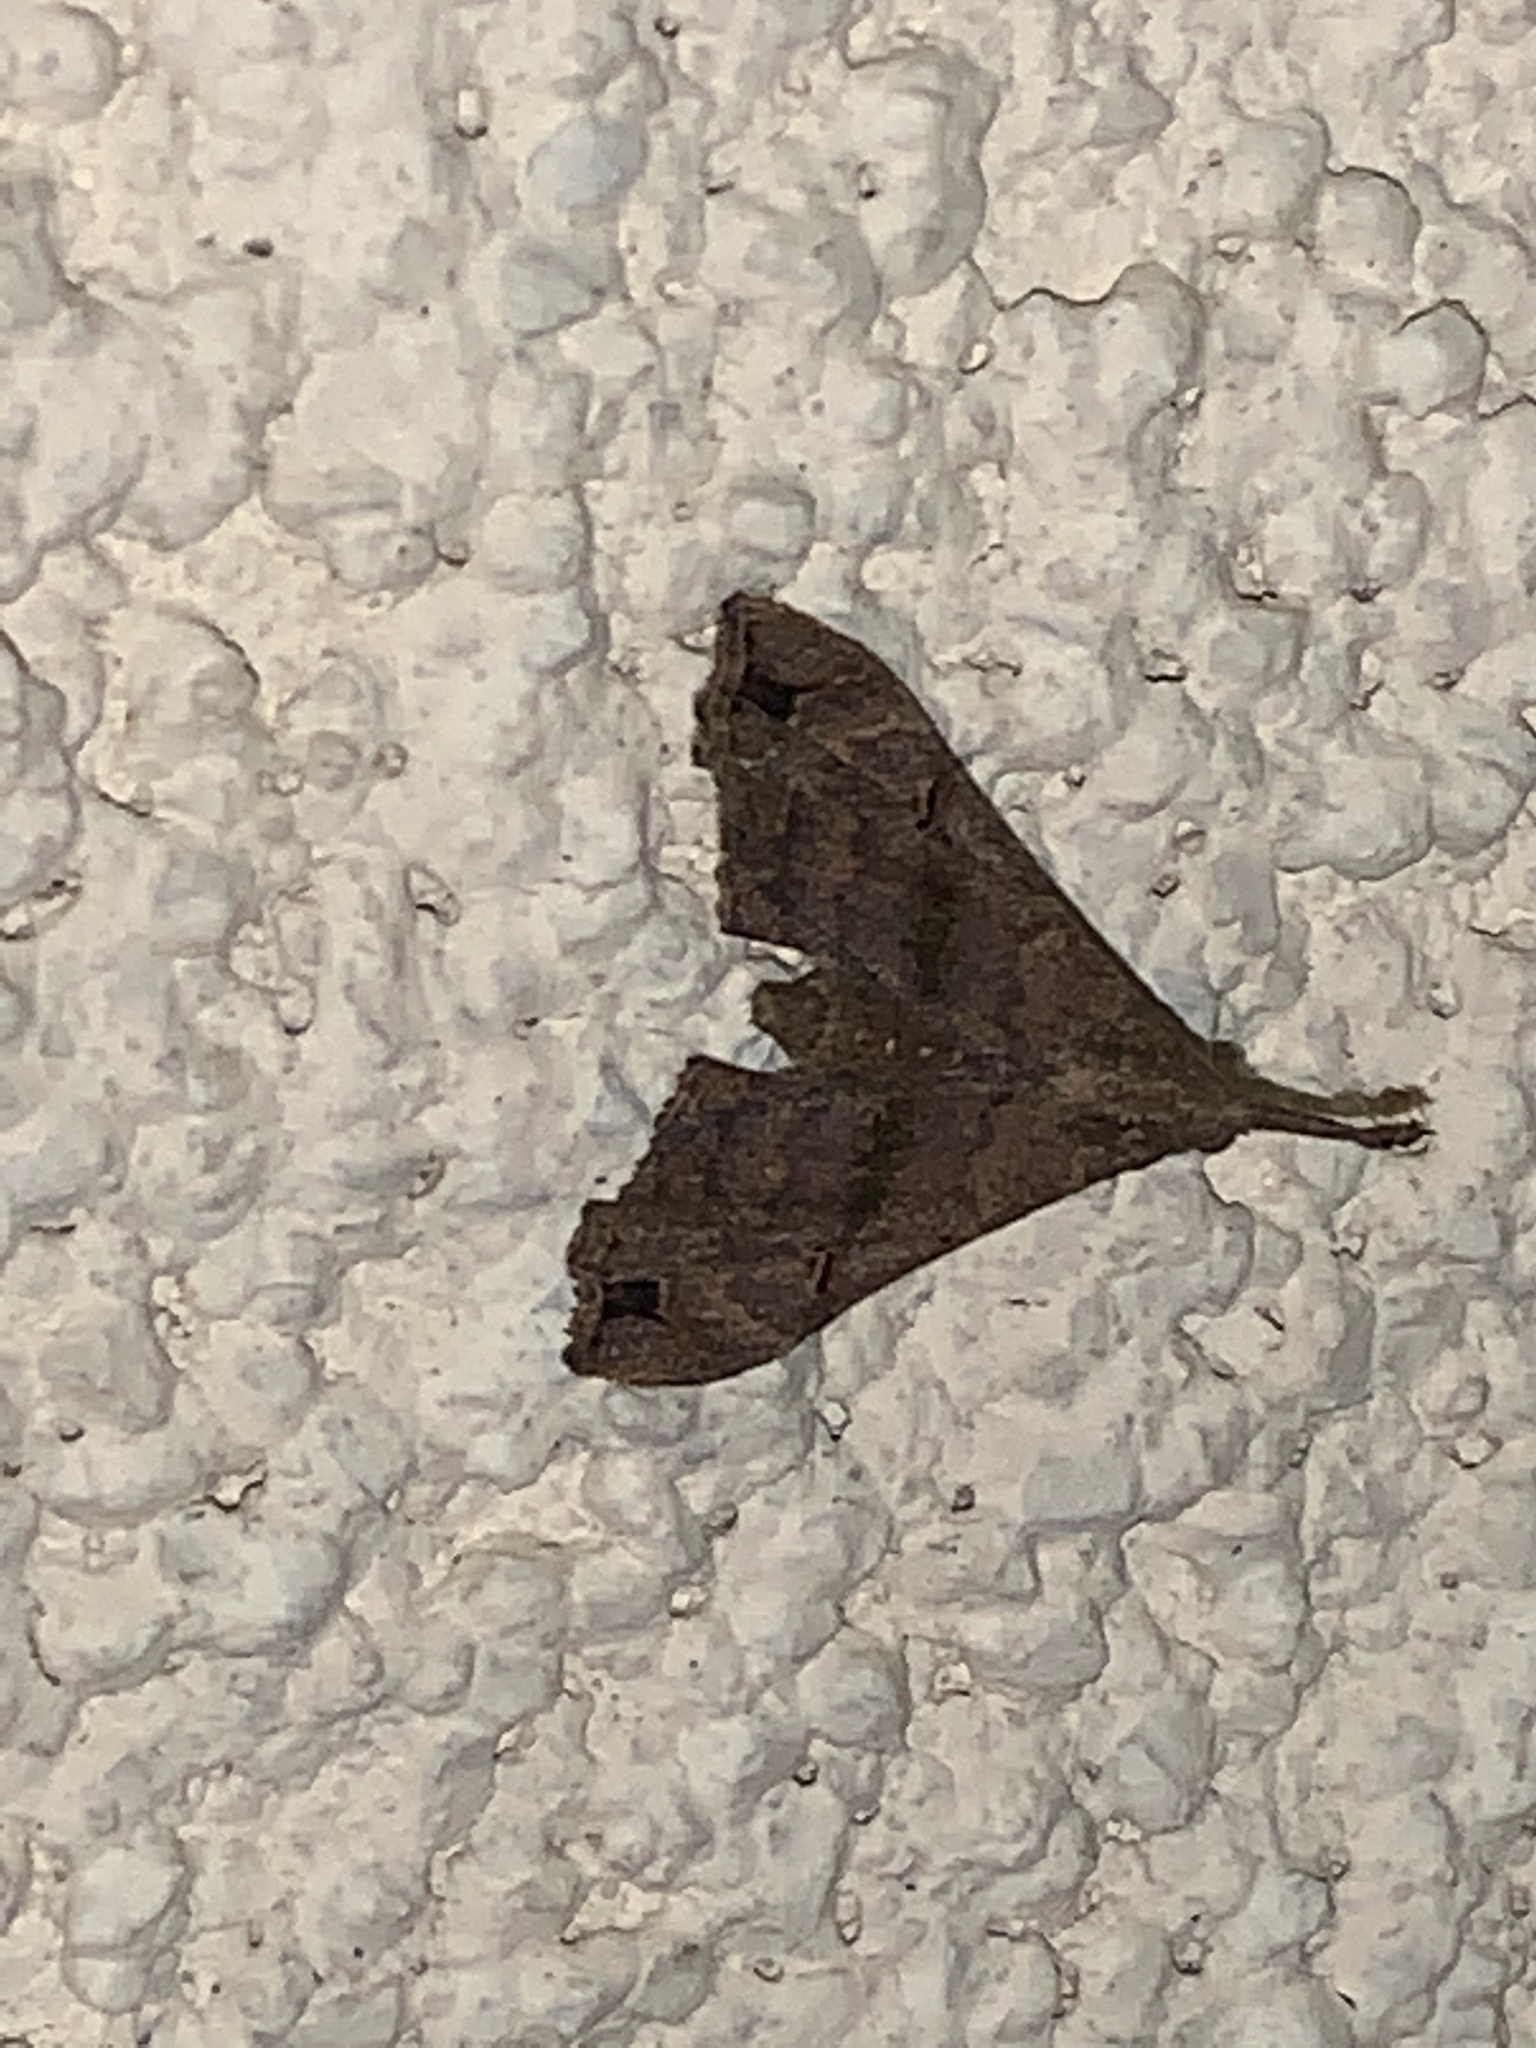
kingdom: Animalia
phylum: Arthropoda
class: Insecta
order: Lepidoptera
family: Erebidae
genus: Palthis
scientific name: Palthis asopialis
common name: Faint-spotted palthis moth
